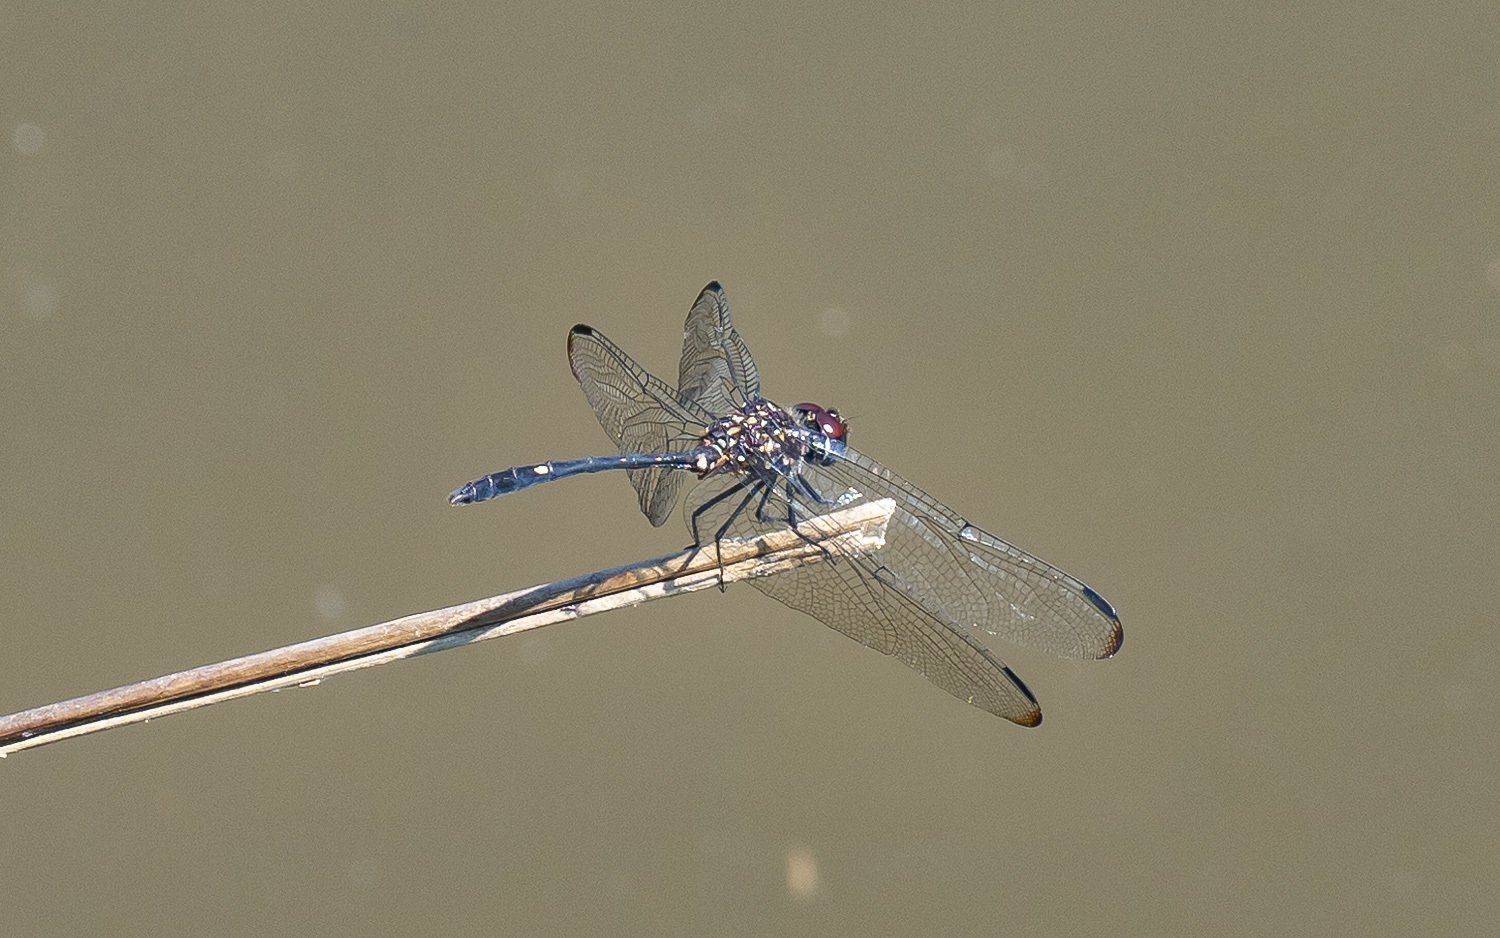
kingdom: Animalia
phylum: Arthropoda
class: Insecta
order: Odonata
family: Libellulidae
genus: Dythemis
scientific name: Dythemis velox
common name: Swift setwing
